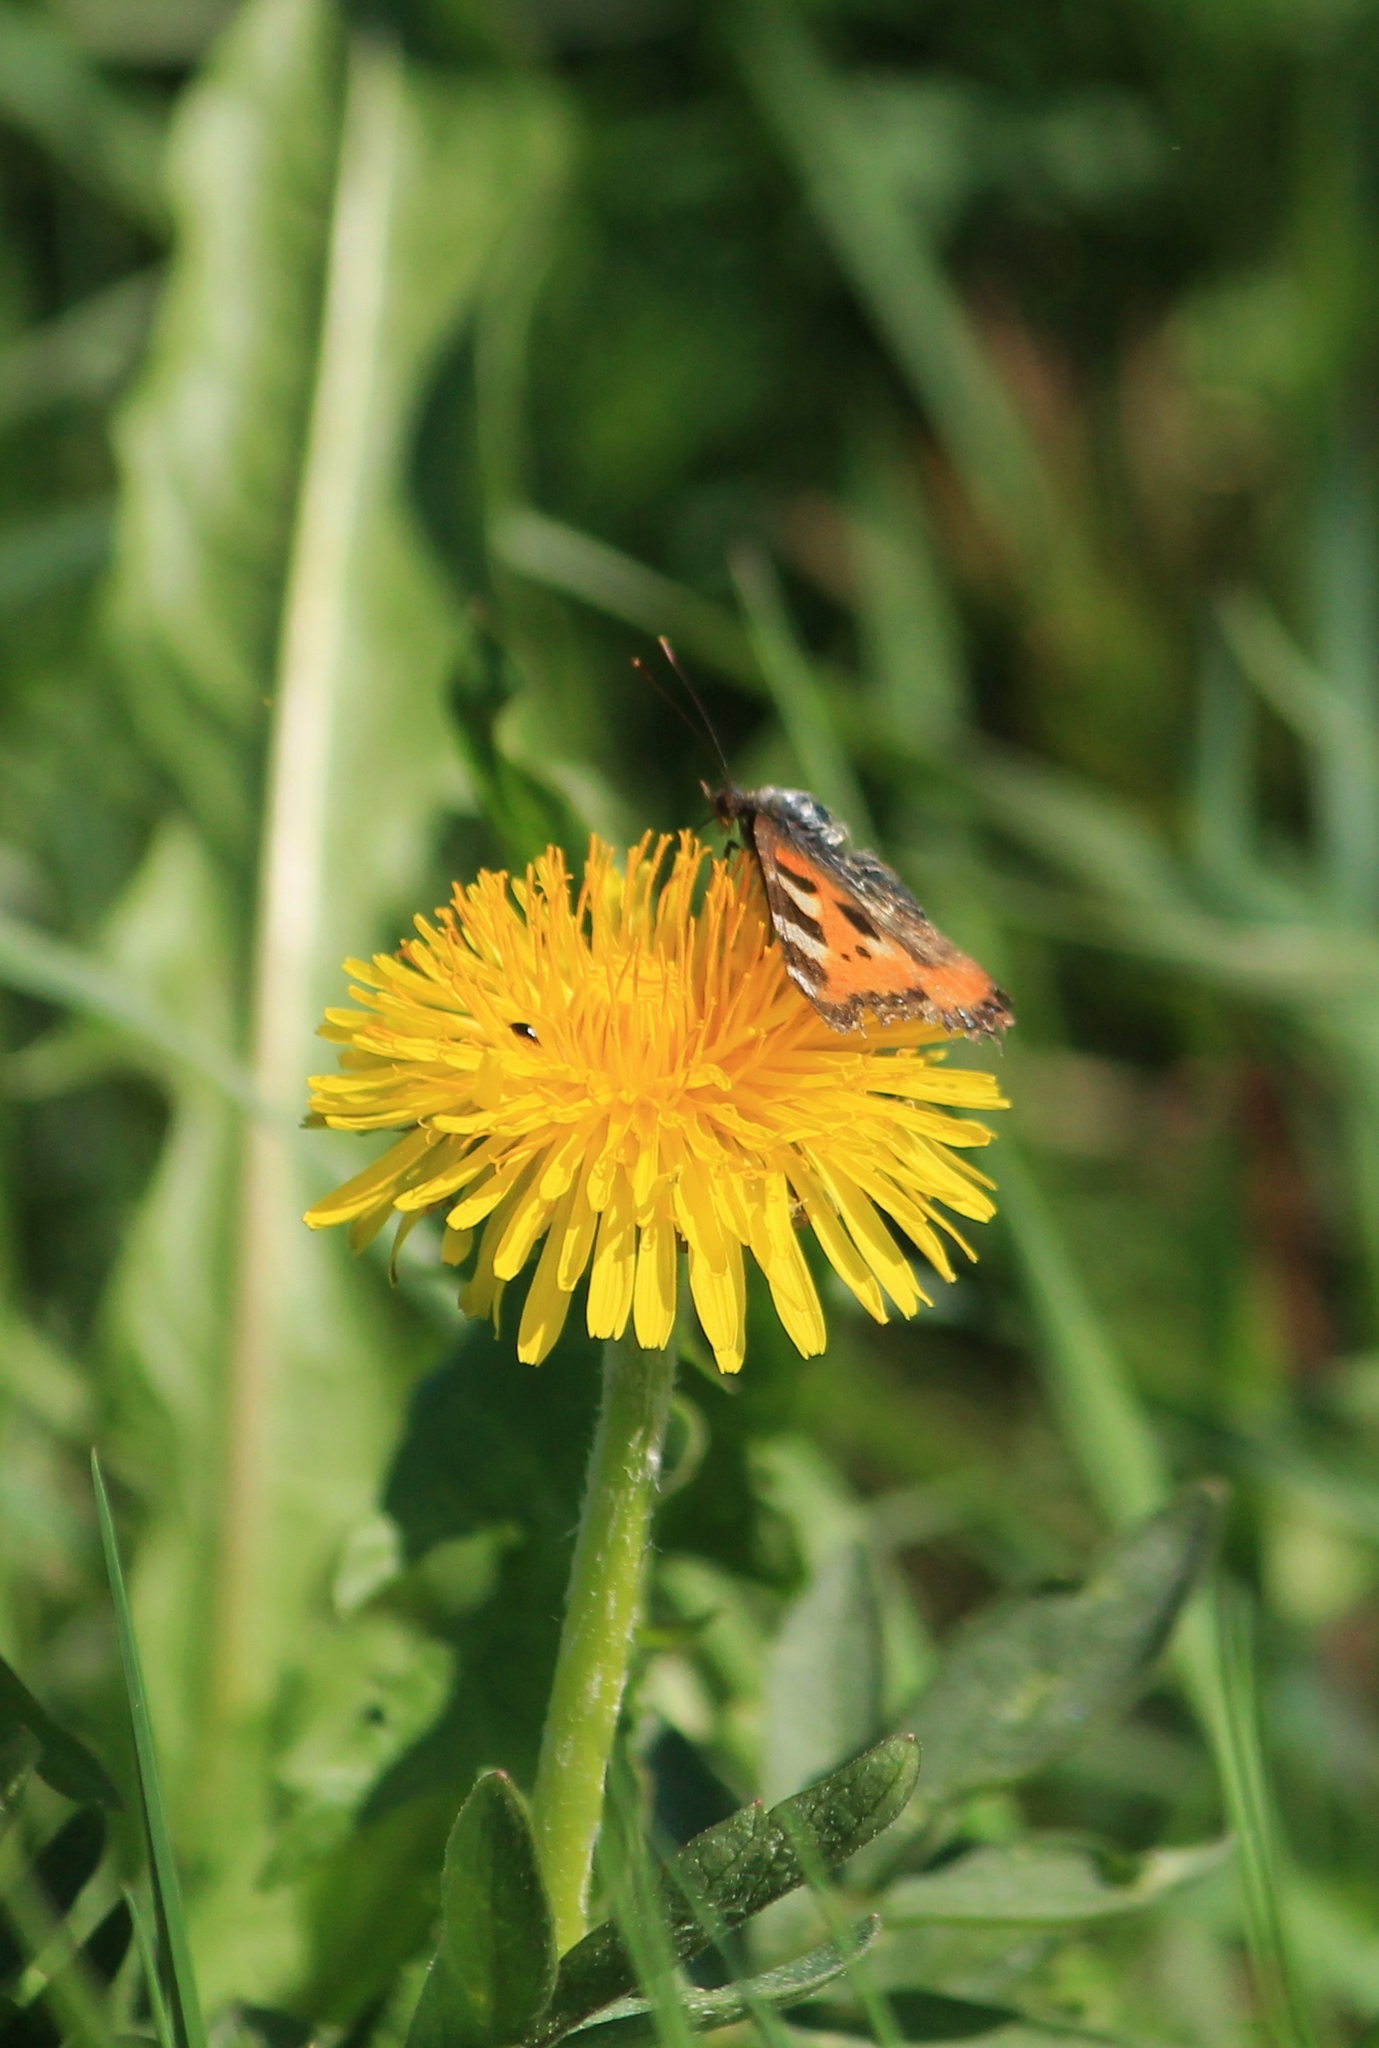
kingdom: Animalia
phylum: Arthropoda
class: Insecta
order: Lepidoptera
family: Nymphalidae
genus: Aglais
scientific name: Aglais urticae
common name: Small tortoiseshell
